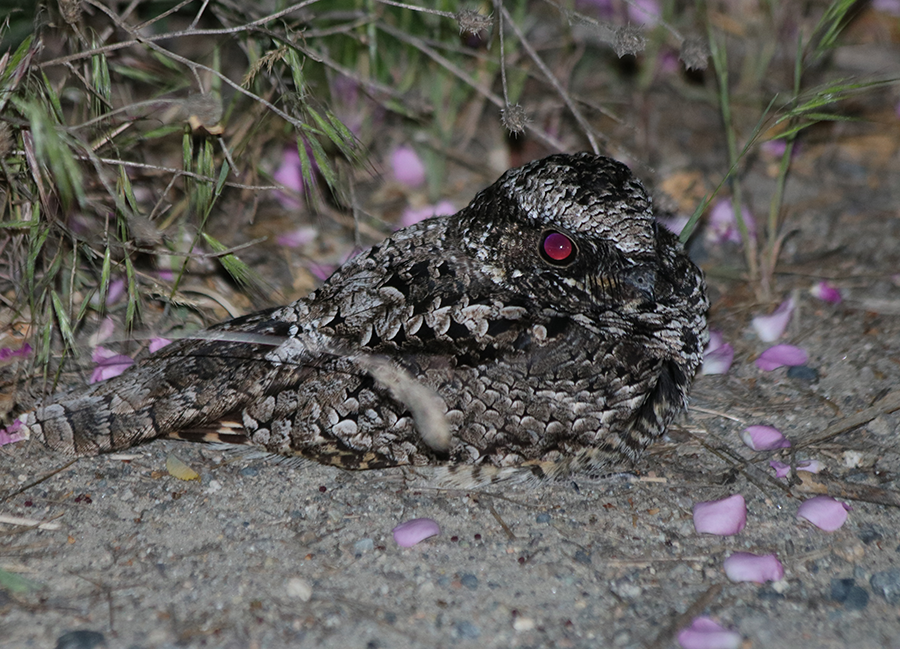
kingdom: Animalia
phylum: Chordata
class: Aves
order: Caprimulgiformes
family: Caprimulgidae
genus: Phalaenoptilus
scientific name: Phalaenoptilus nuttallii
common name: Common poorwill
